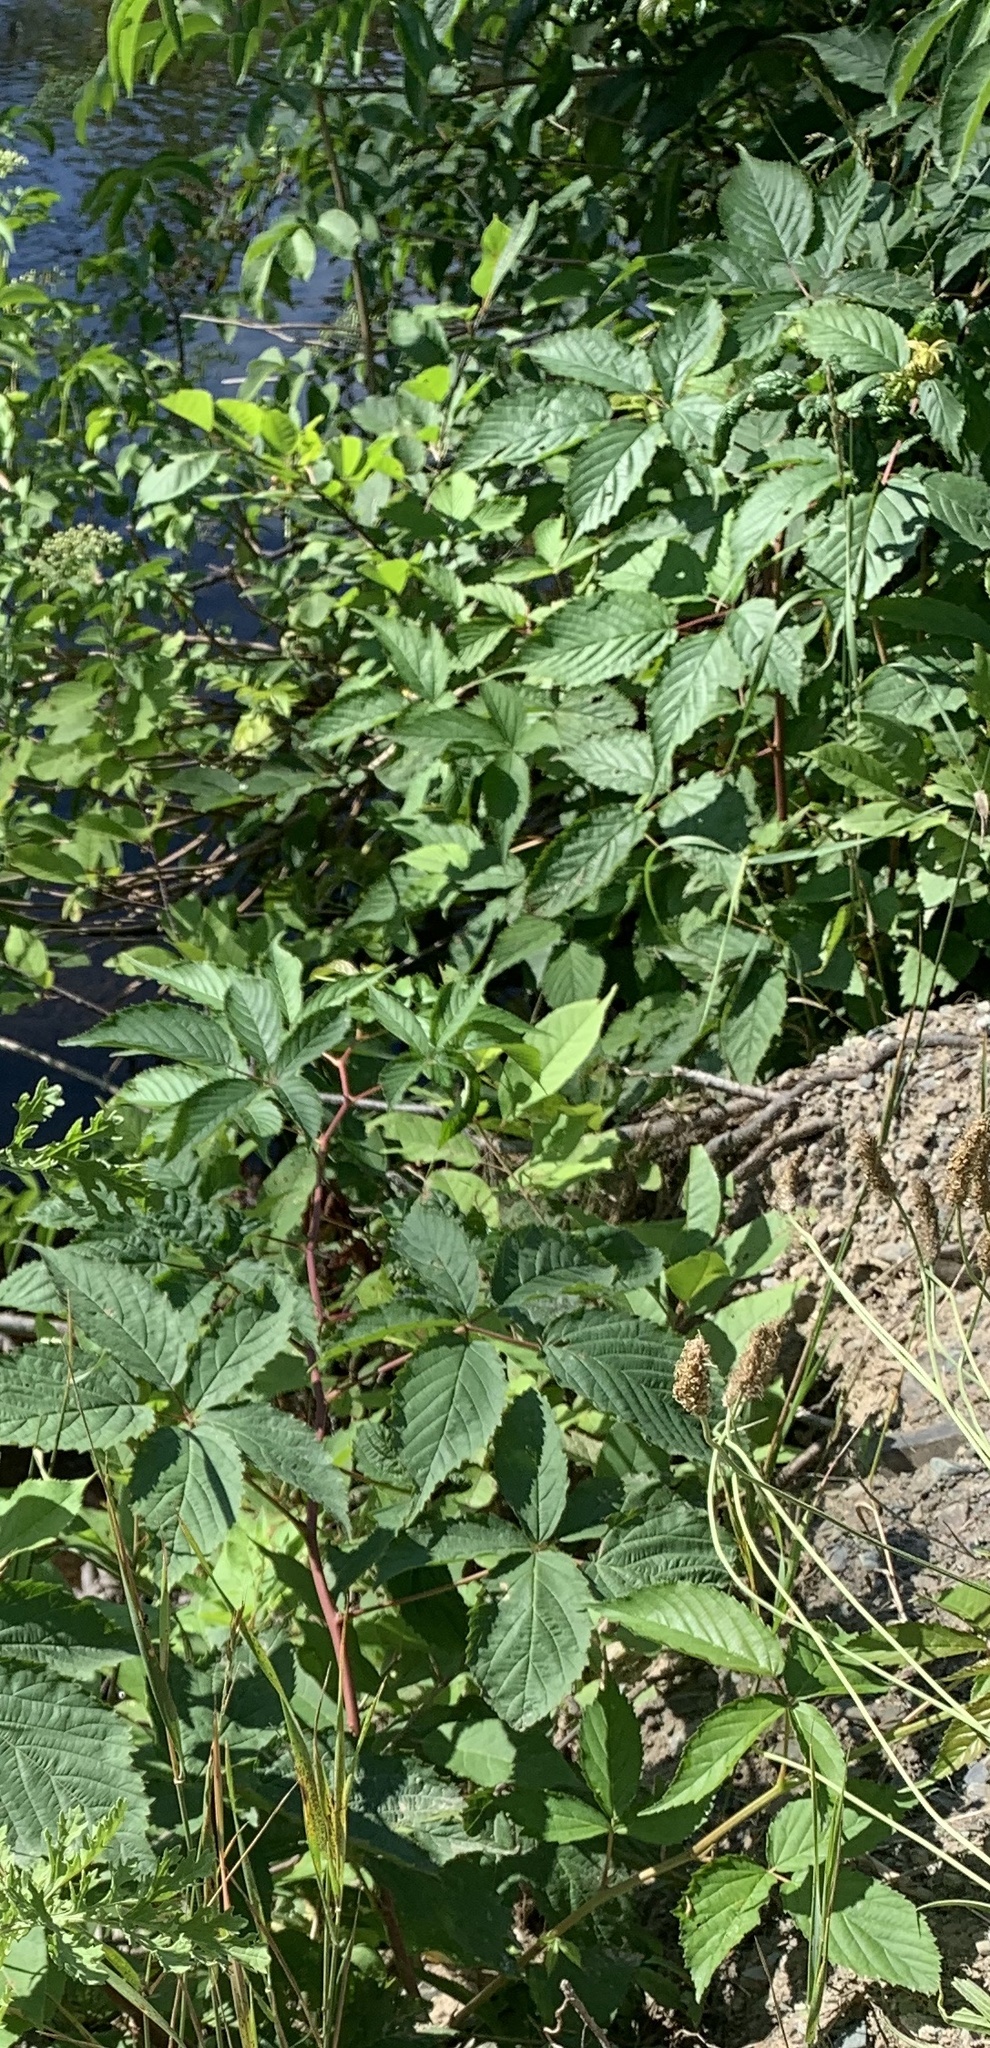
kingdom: Plantae
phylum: Tracheophyta
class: Magnoliopsida
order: Rosales
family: Rosaceae
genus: Rubus
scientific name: Rubus canadensis
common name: Smooth blackberry
